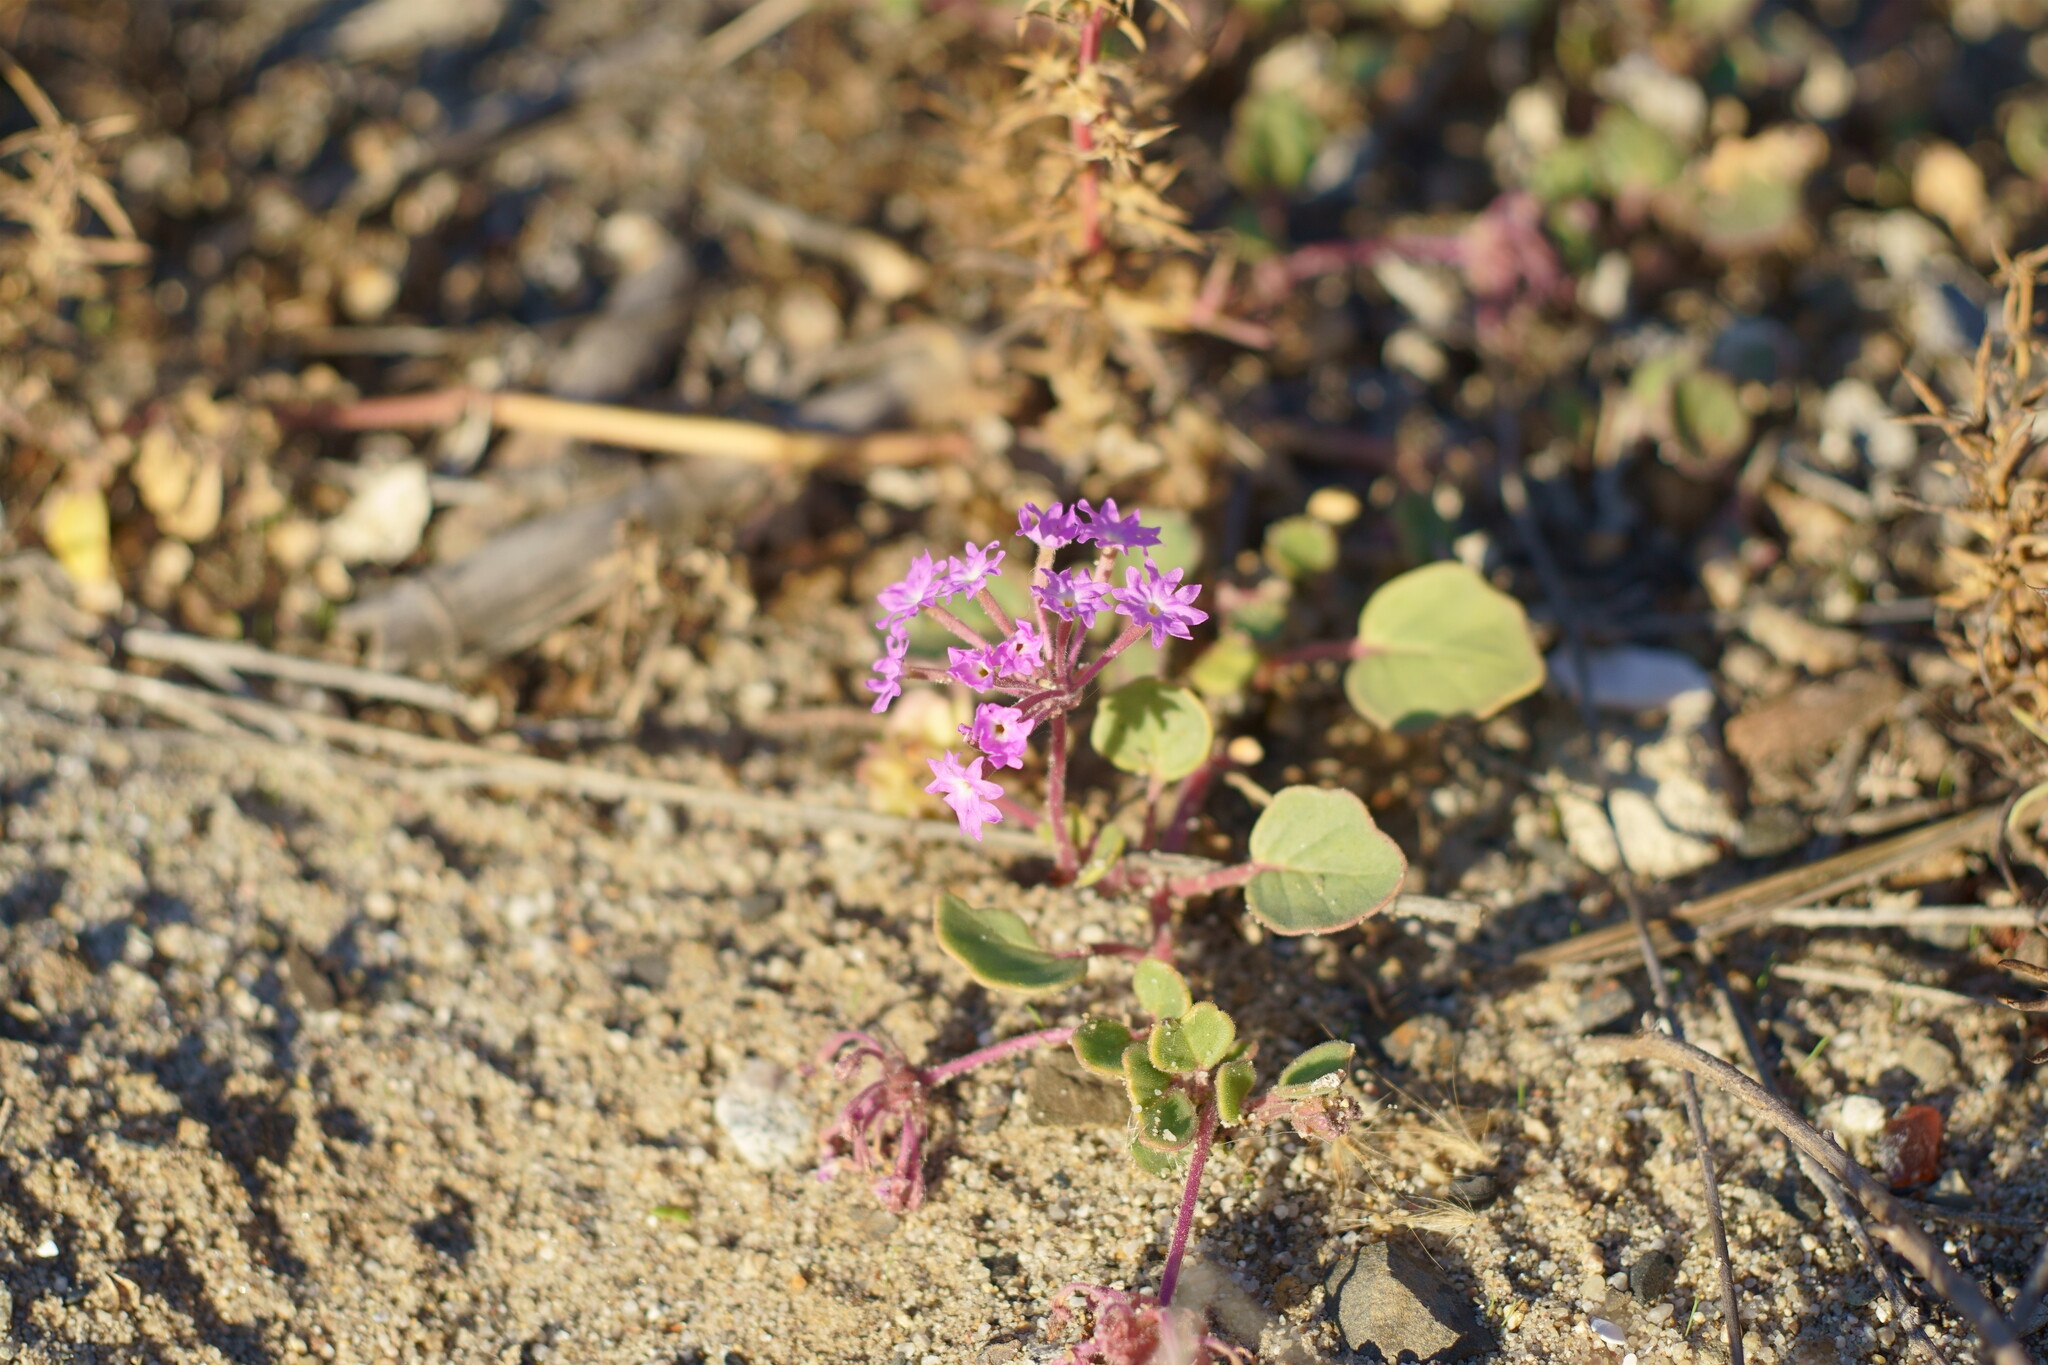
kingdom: Plantae
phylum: Tracheophyta
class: Magnoliopsida
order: Caryophyllales
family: Nyctaginaceae
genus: Abronia
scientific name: Abronia umbellata
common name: Sand-verbena
